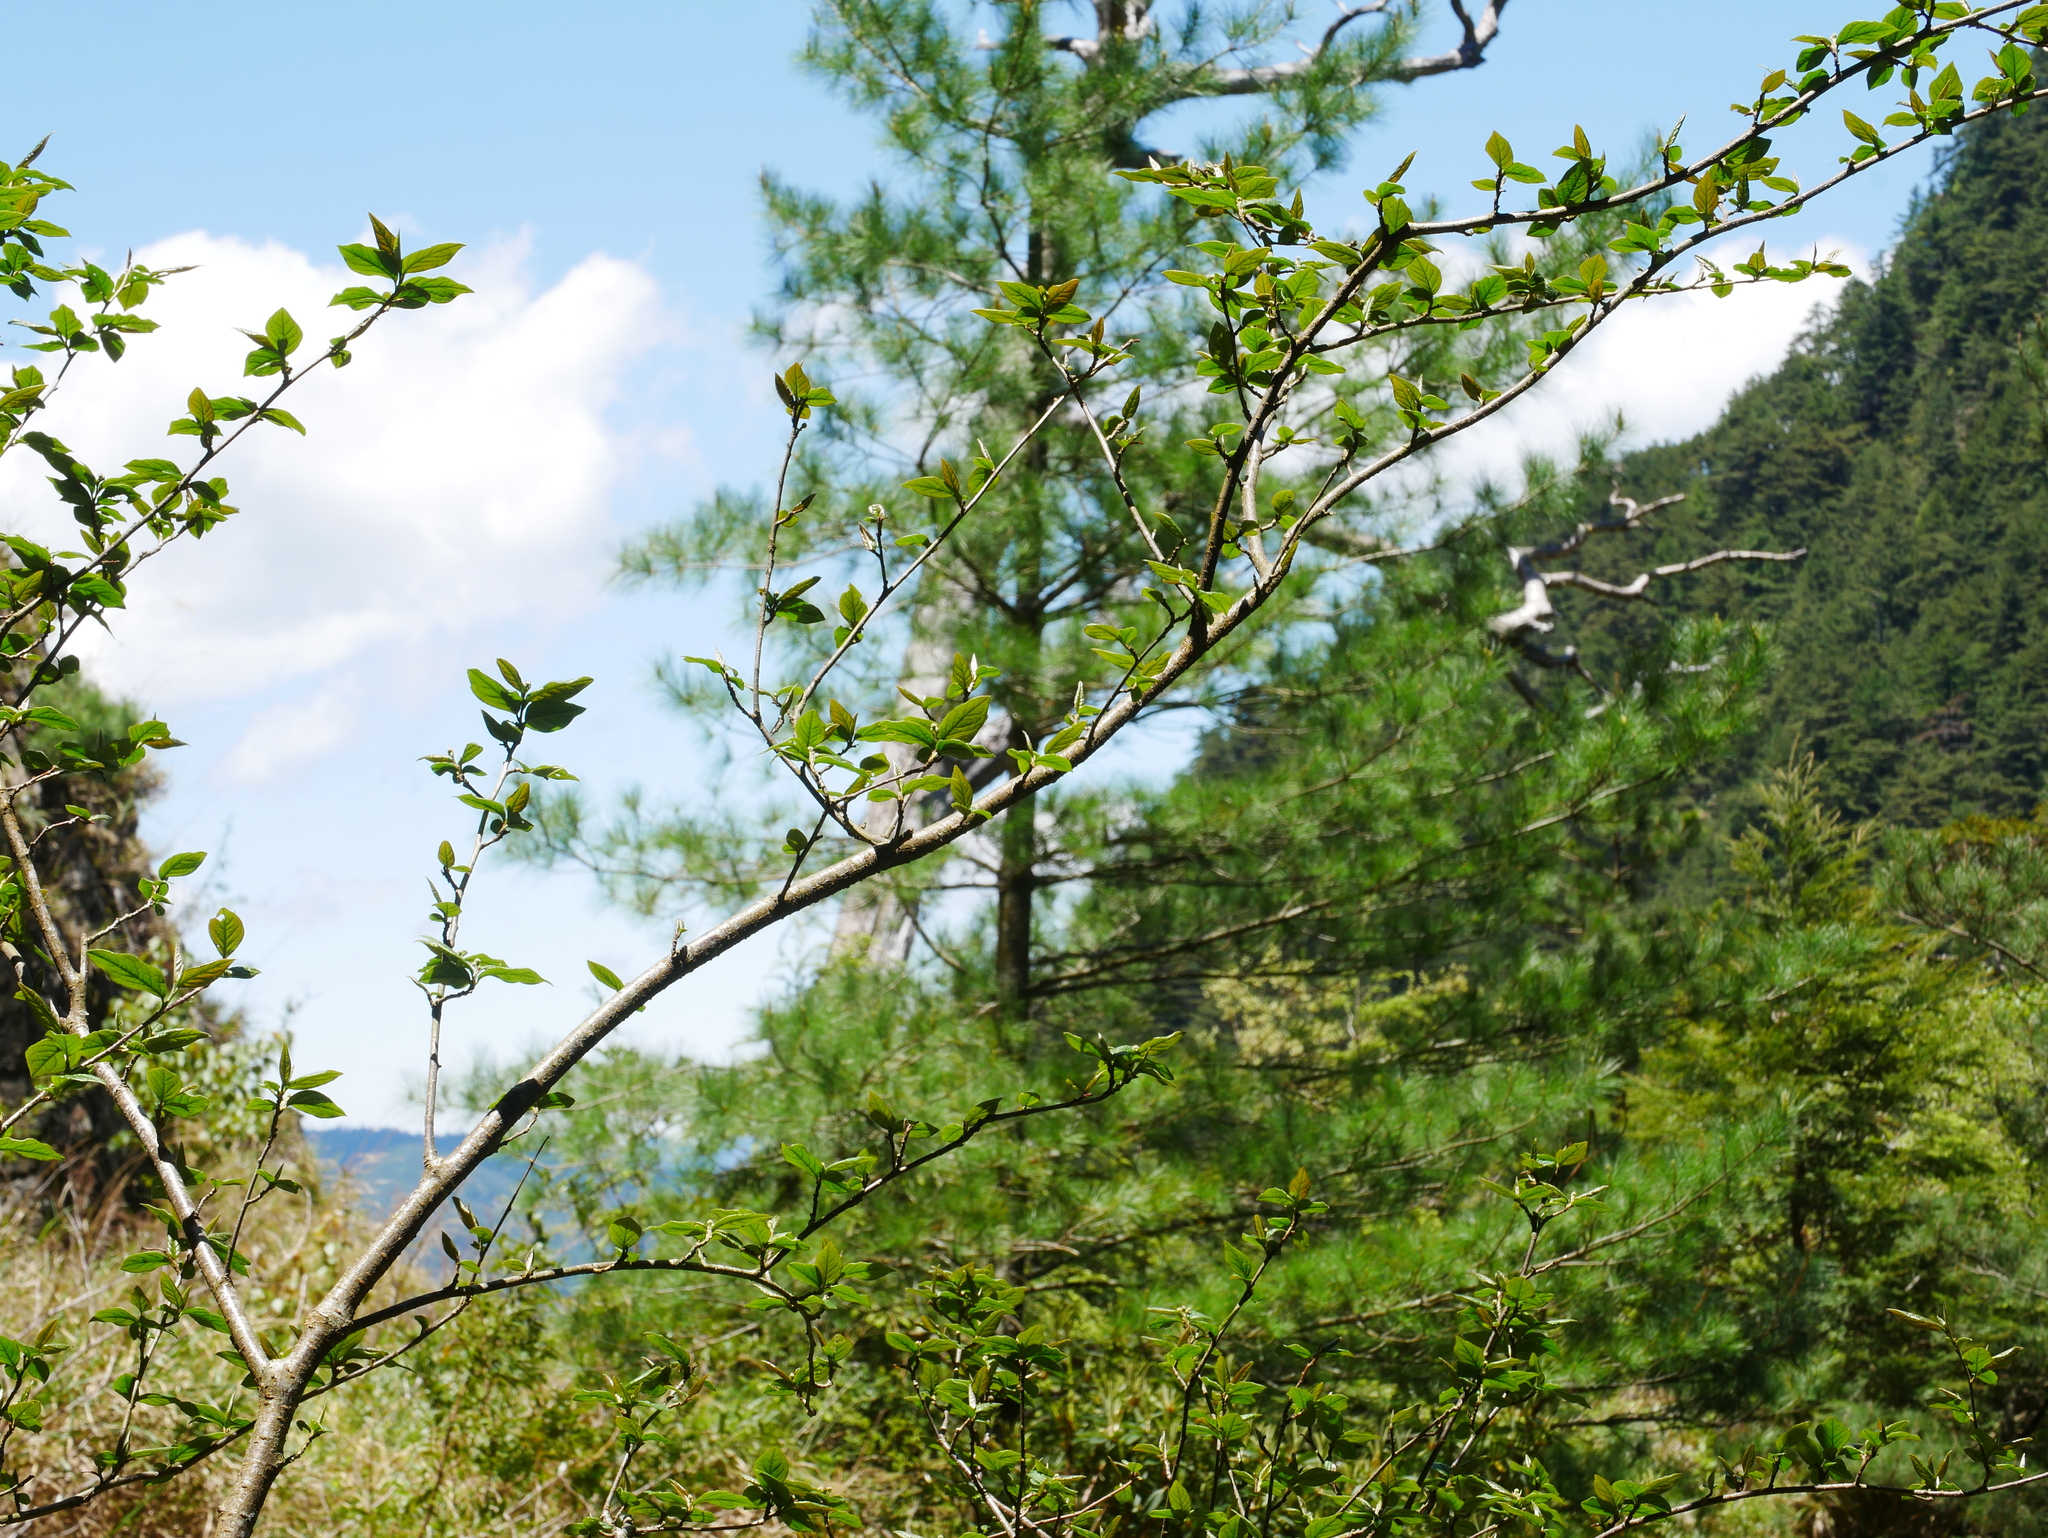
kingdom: Plantae
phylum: Tracheophyta
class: Magnoliopsida
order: Rosales
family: Rosaceae
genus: Cotoneaster
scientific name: Cotoneaster bullatus
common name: Hollyberry cotoneaster
